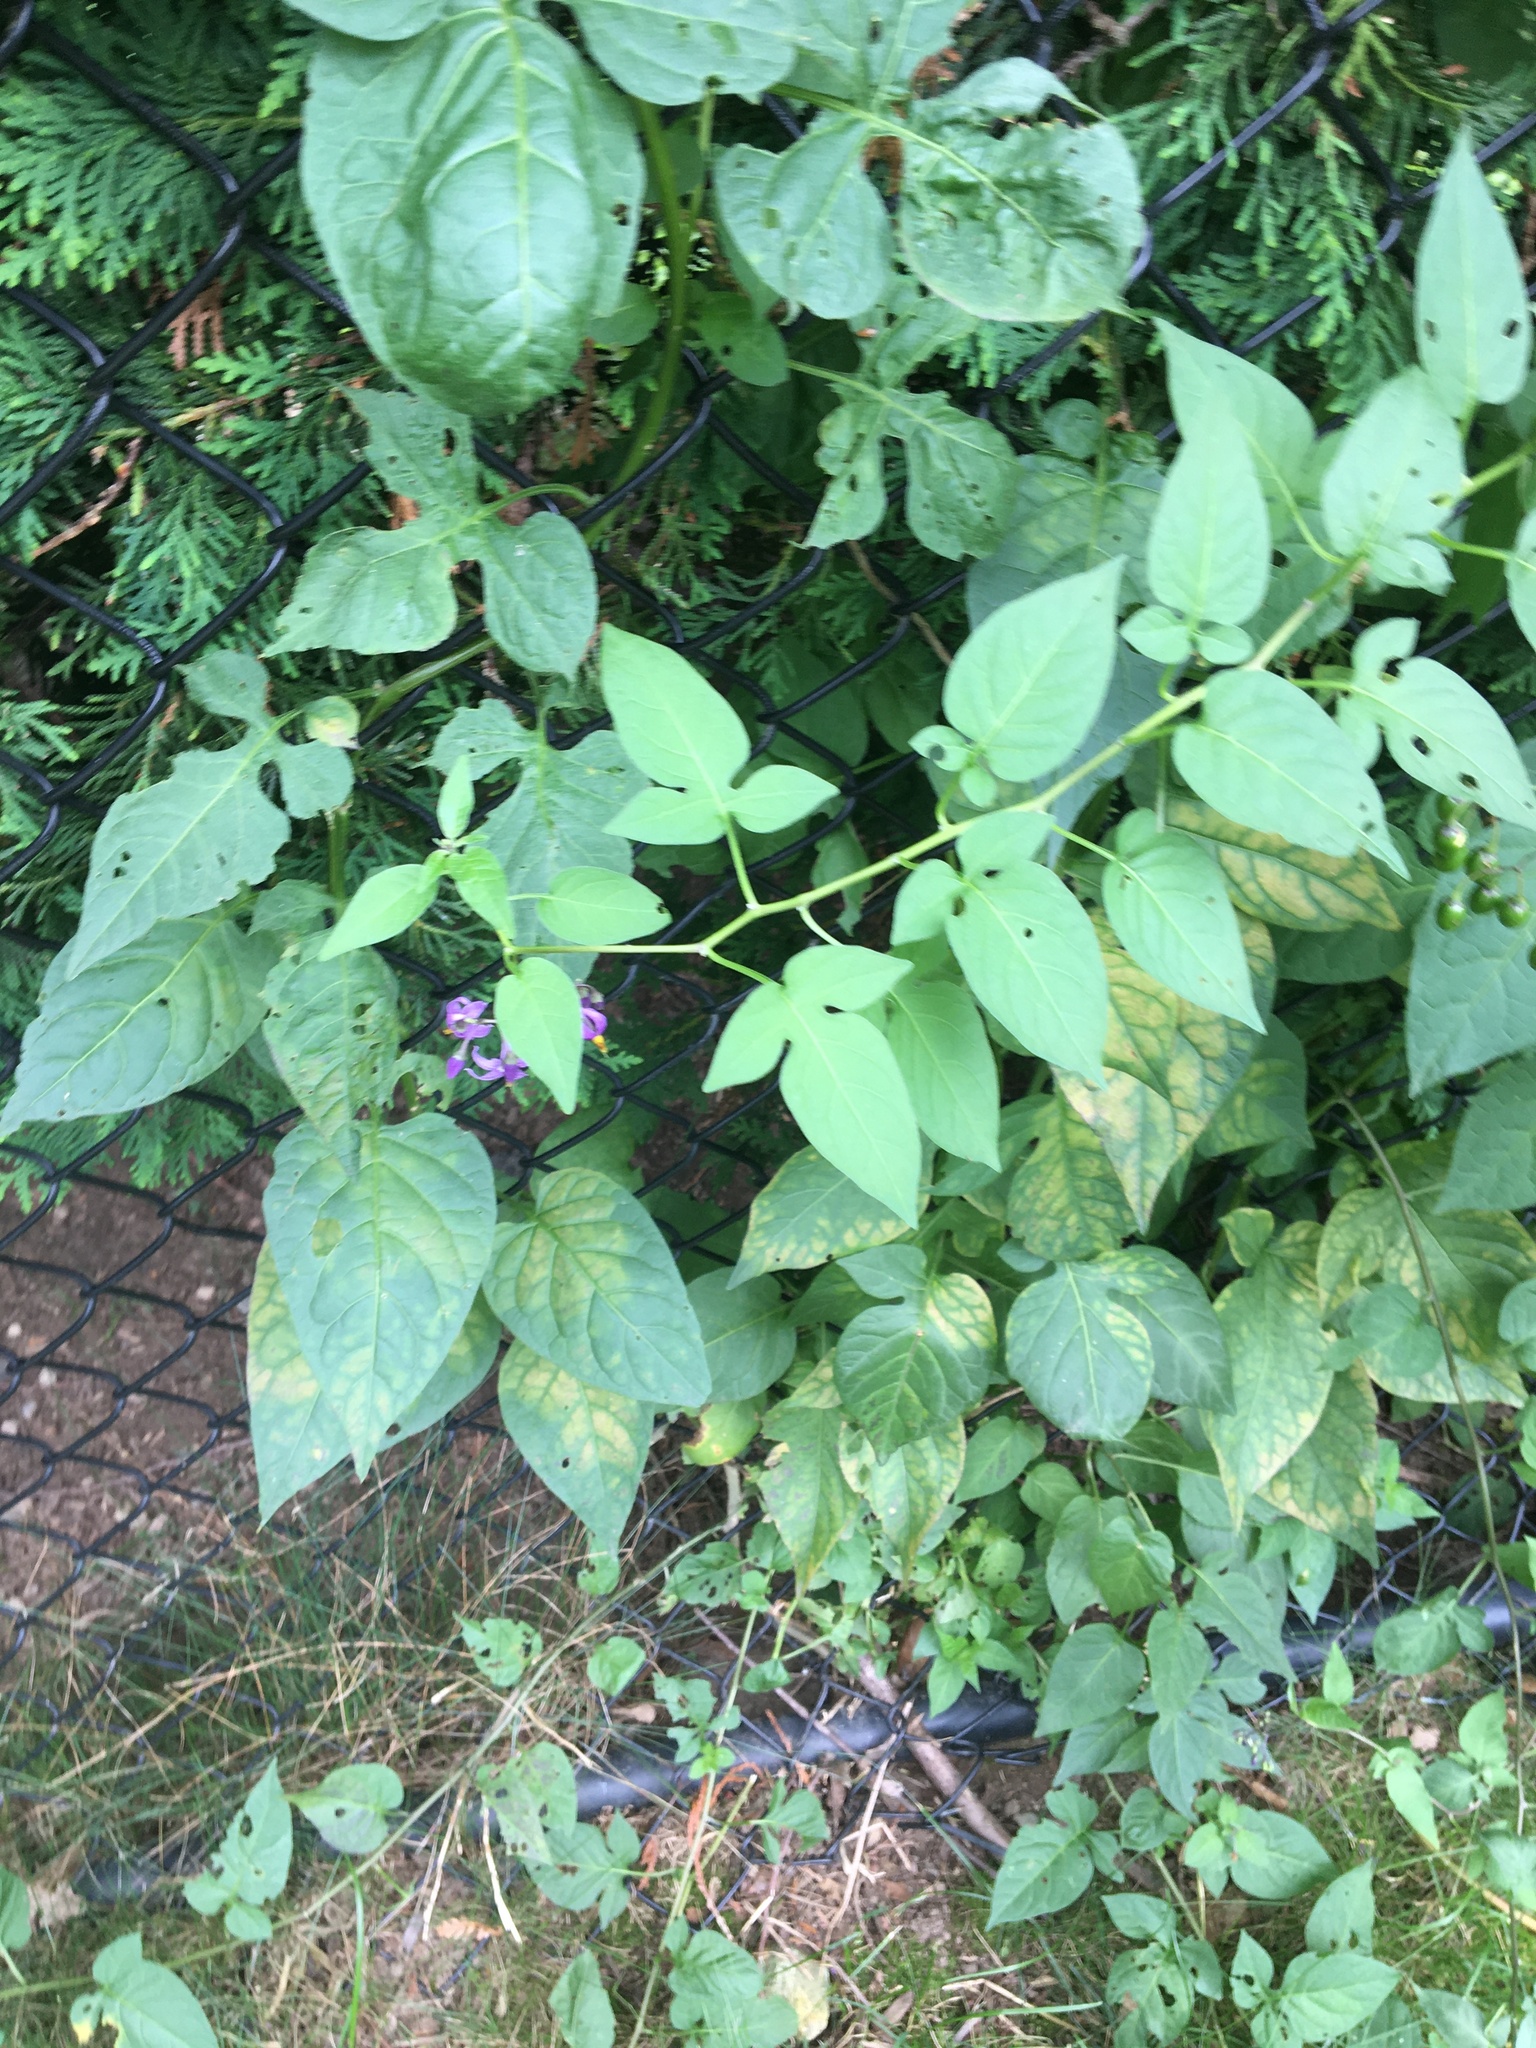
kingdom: Plantae
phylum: Tracheophyta
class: Magnoliopsida
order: Solanales
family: Solanaceae
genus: Solanum
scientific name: Solanum dulcamara
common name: Climbing nightshade
